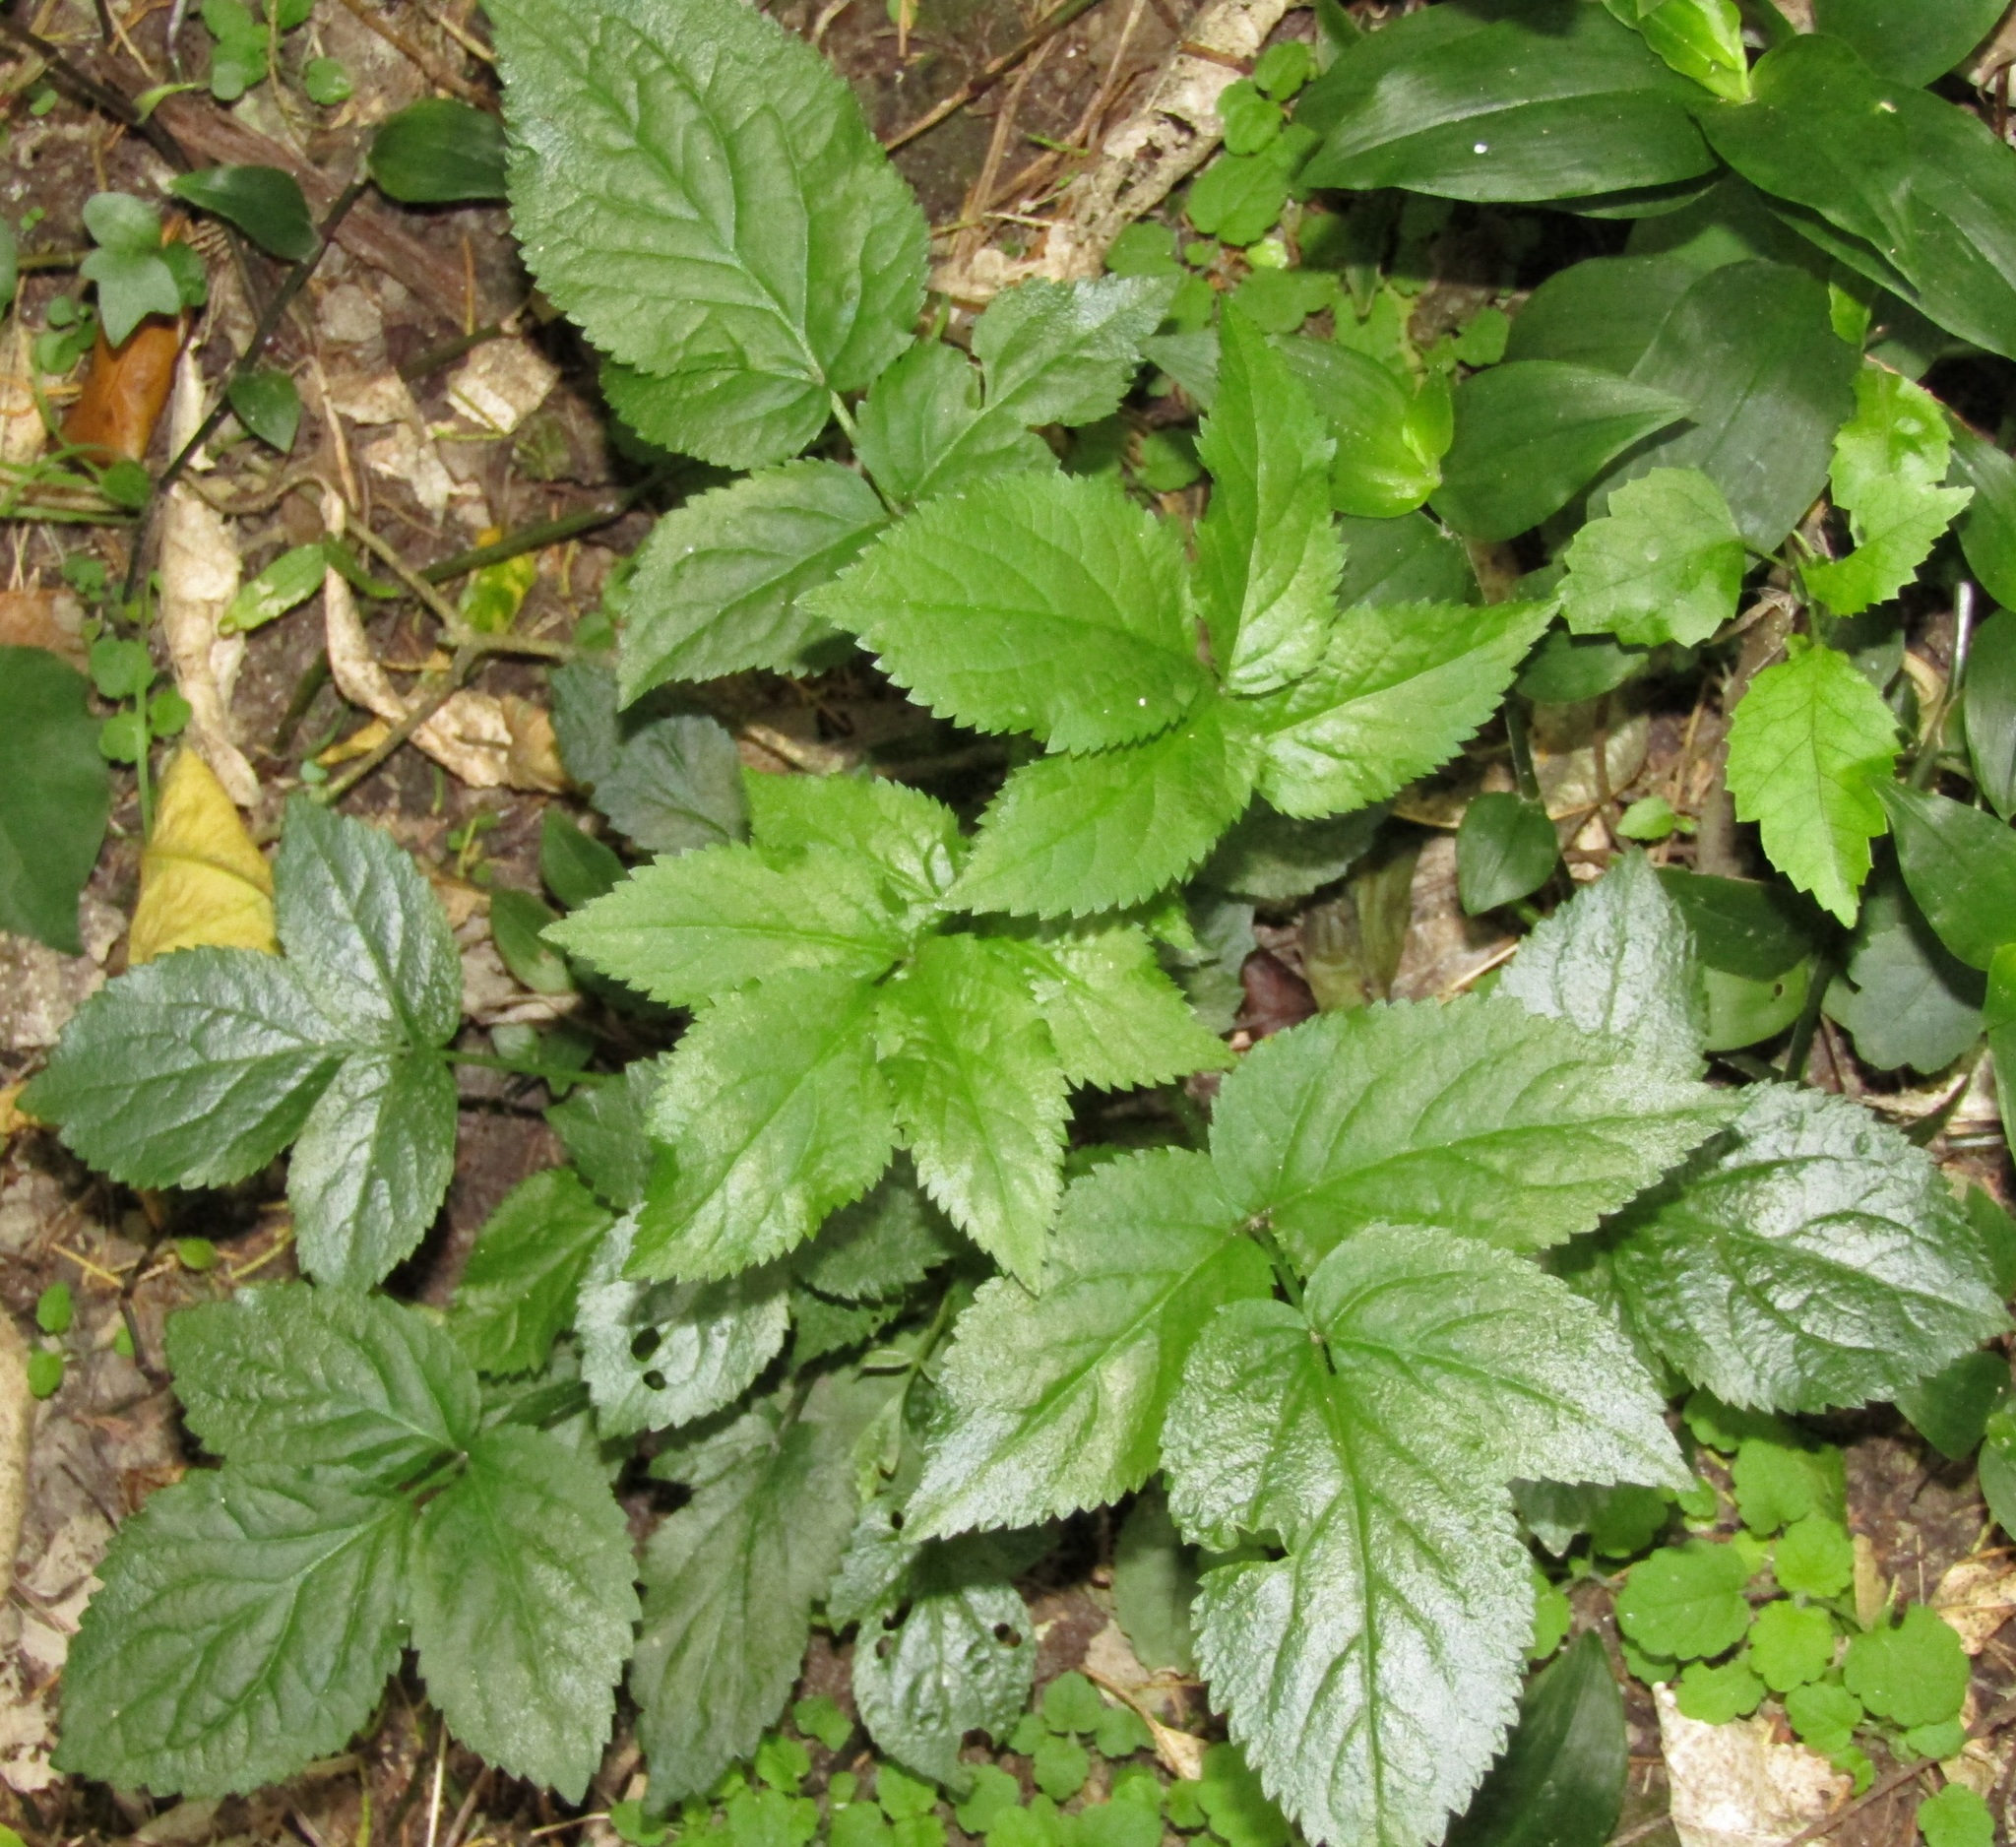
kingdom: Plantae
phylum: Tracheophyta
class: Magnoliopsida
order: Dipsacales
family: Viburnaceae
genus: Sambucus
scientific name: Sambucus nigra
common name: Elder
